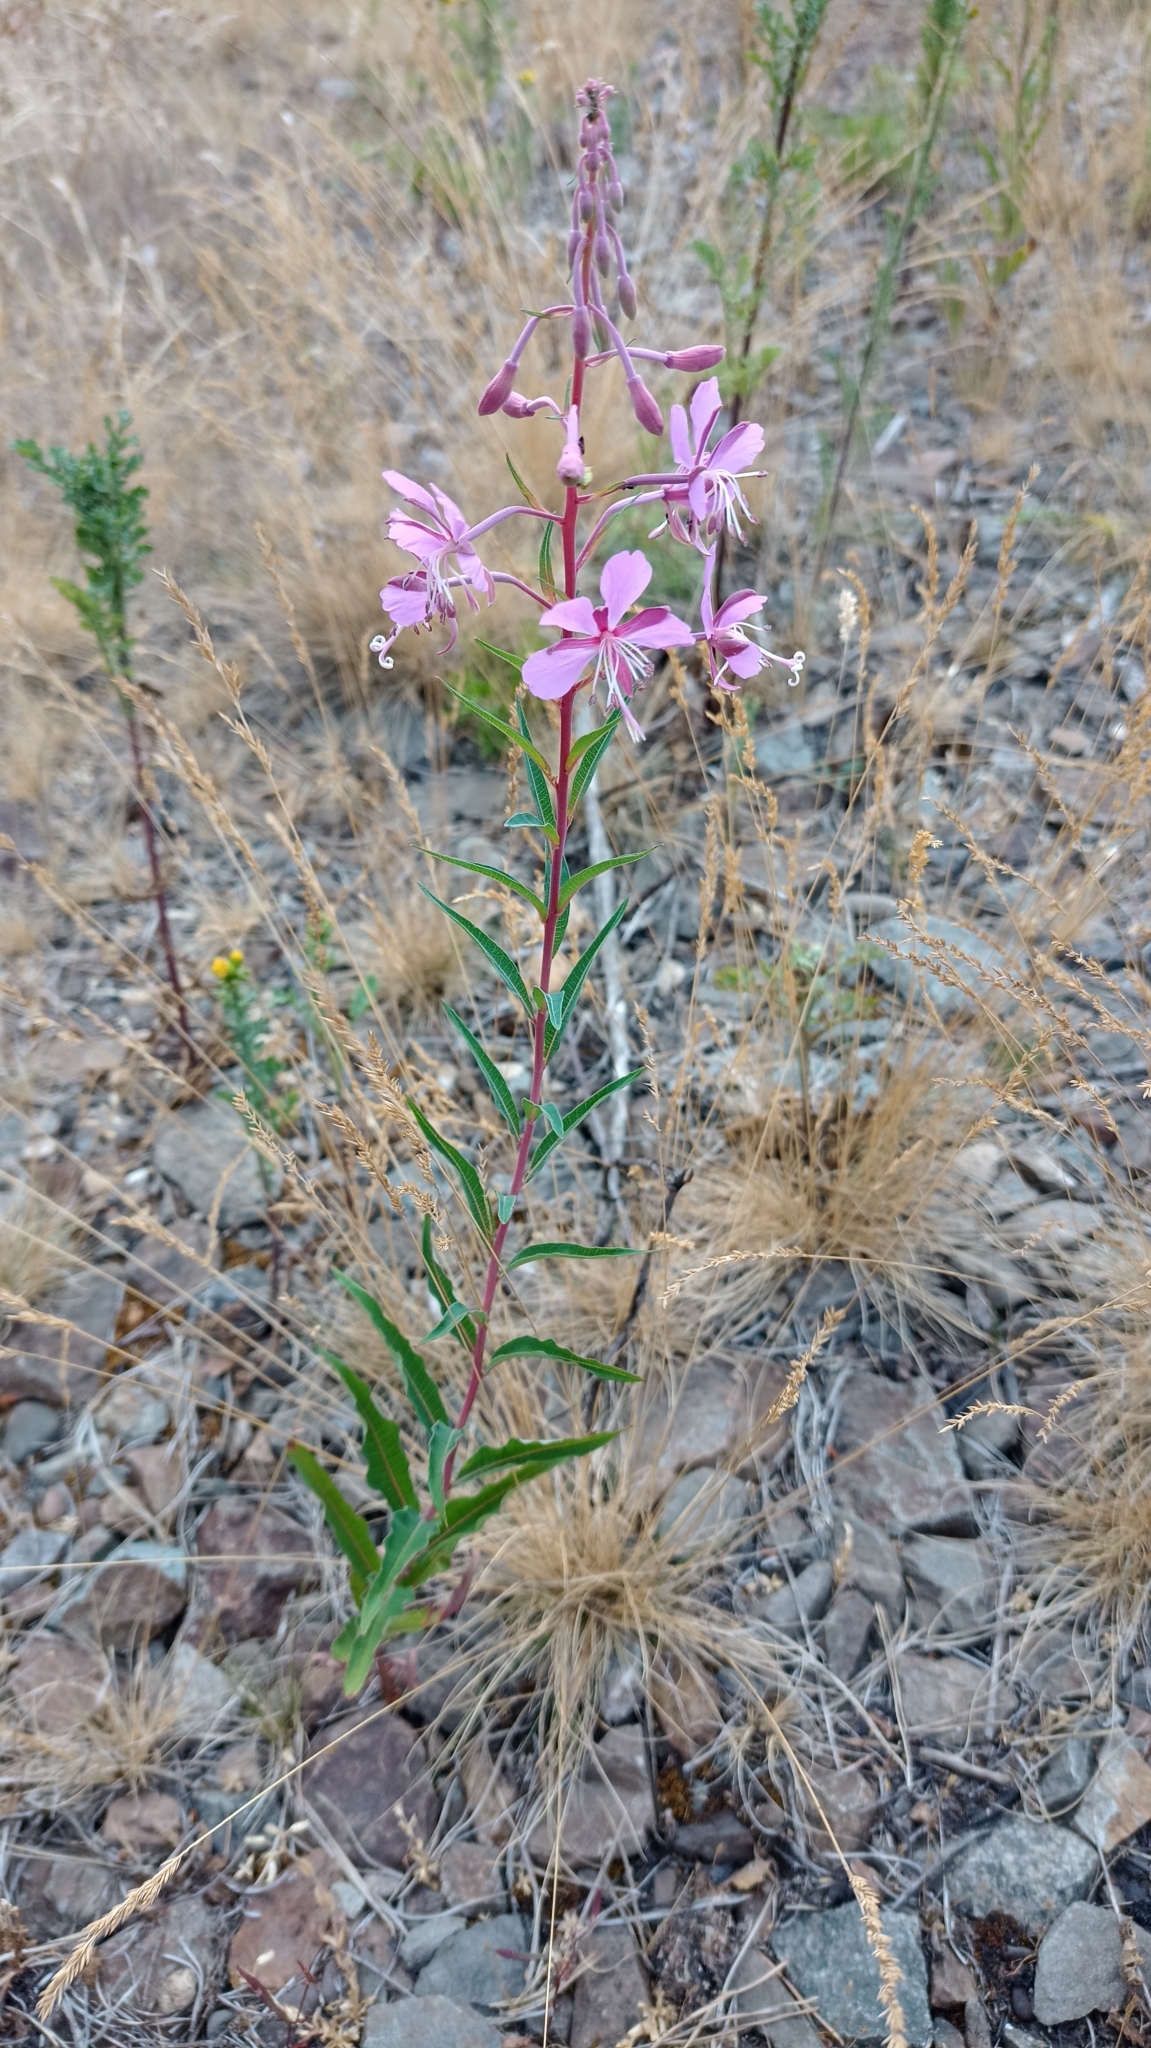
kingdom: Plantae
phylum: Tracheophyta
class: Magnoliopsida
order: Myrtales
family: Onagraceae
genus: Chamaenerion
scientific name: Chamaenerion angustifolium
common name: Fireweed
